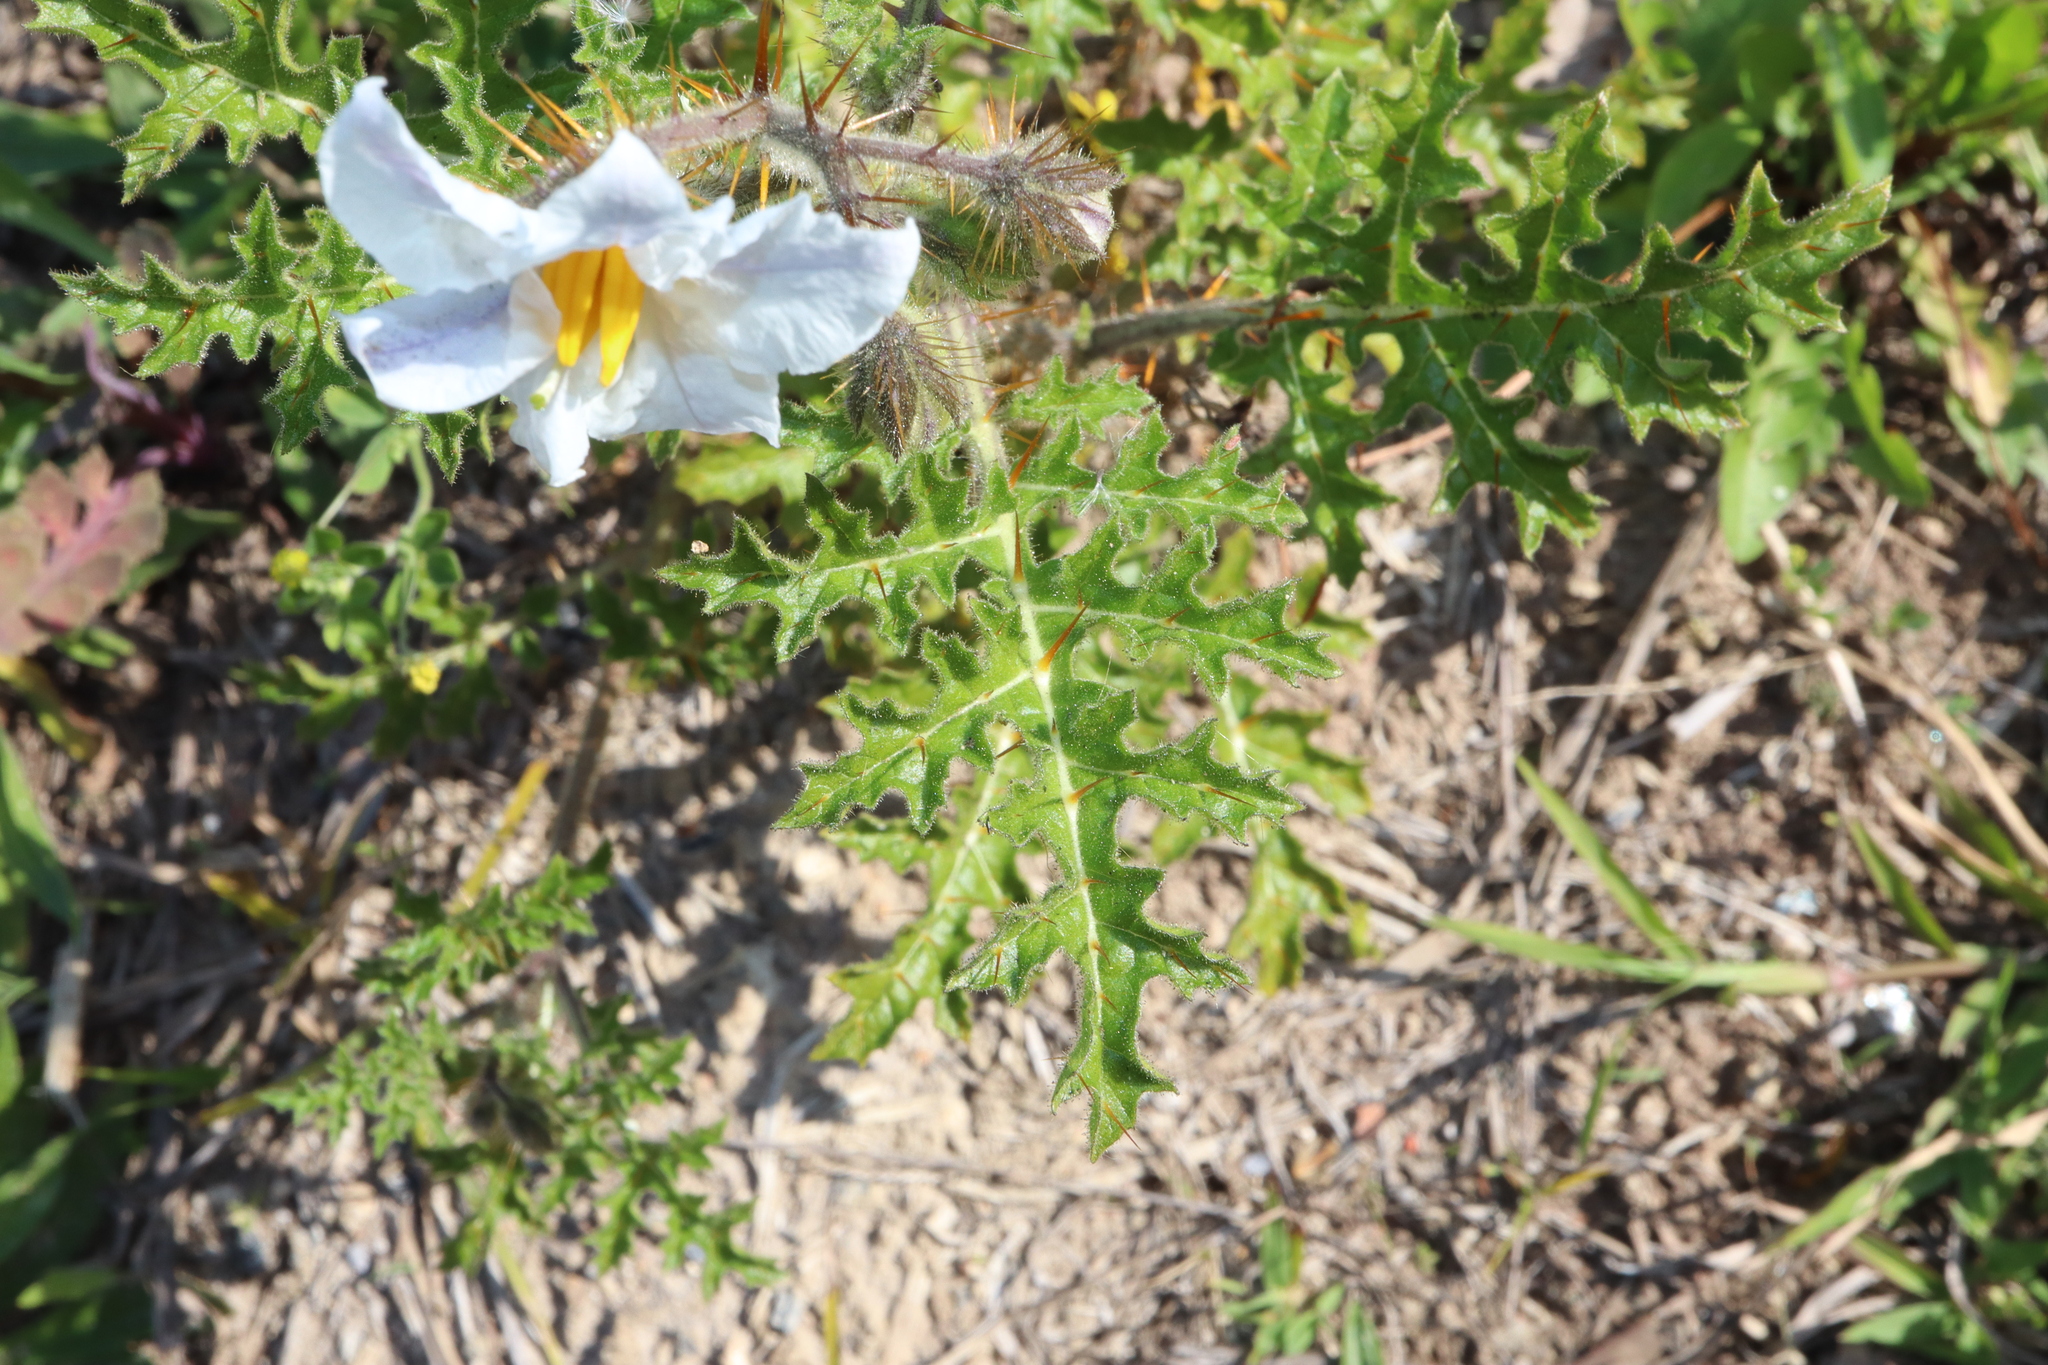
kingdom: Plantae
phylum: Tracheophyta
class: Magnoliopsida
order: Solanales
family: Solanaceae
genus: Solanum
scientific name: Solanum sisymbriifolium
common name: Red buffalo-bur
